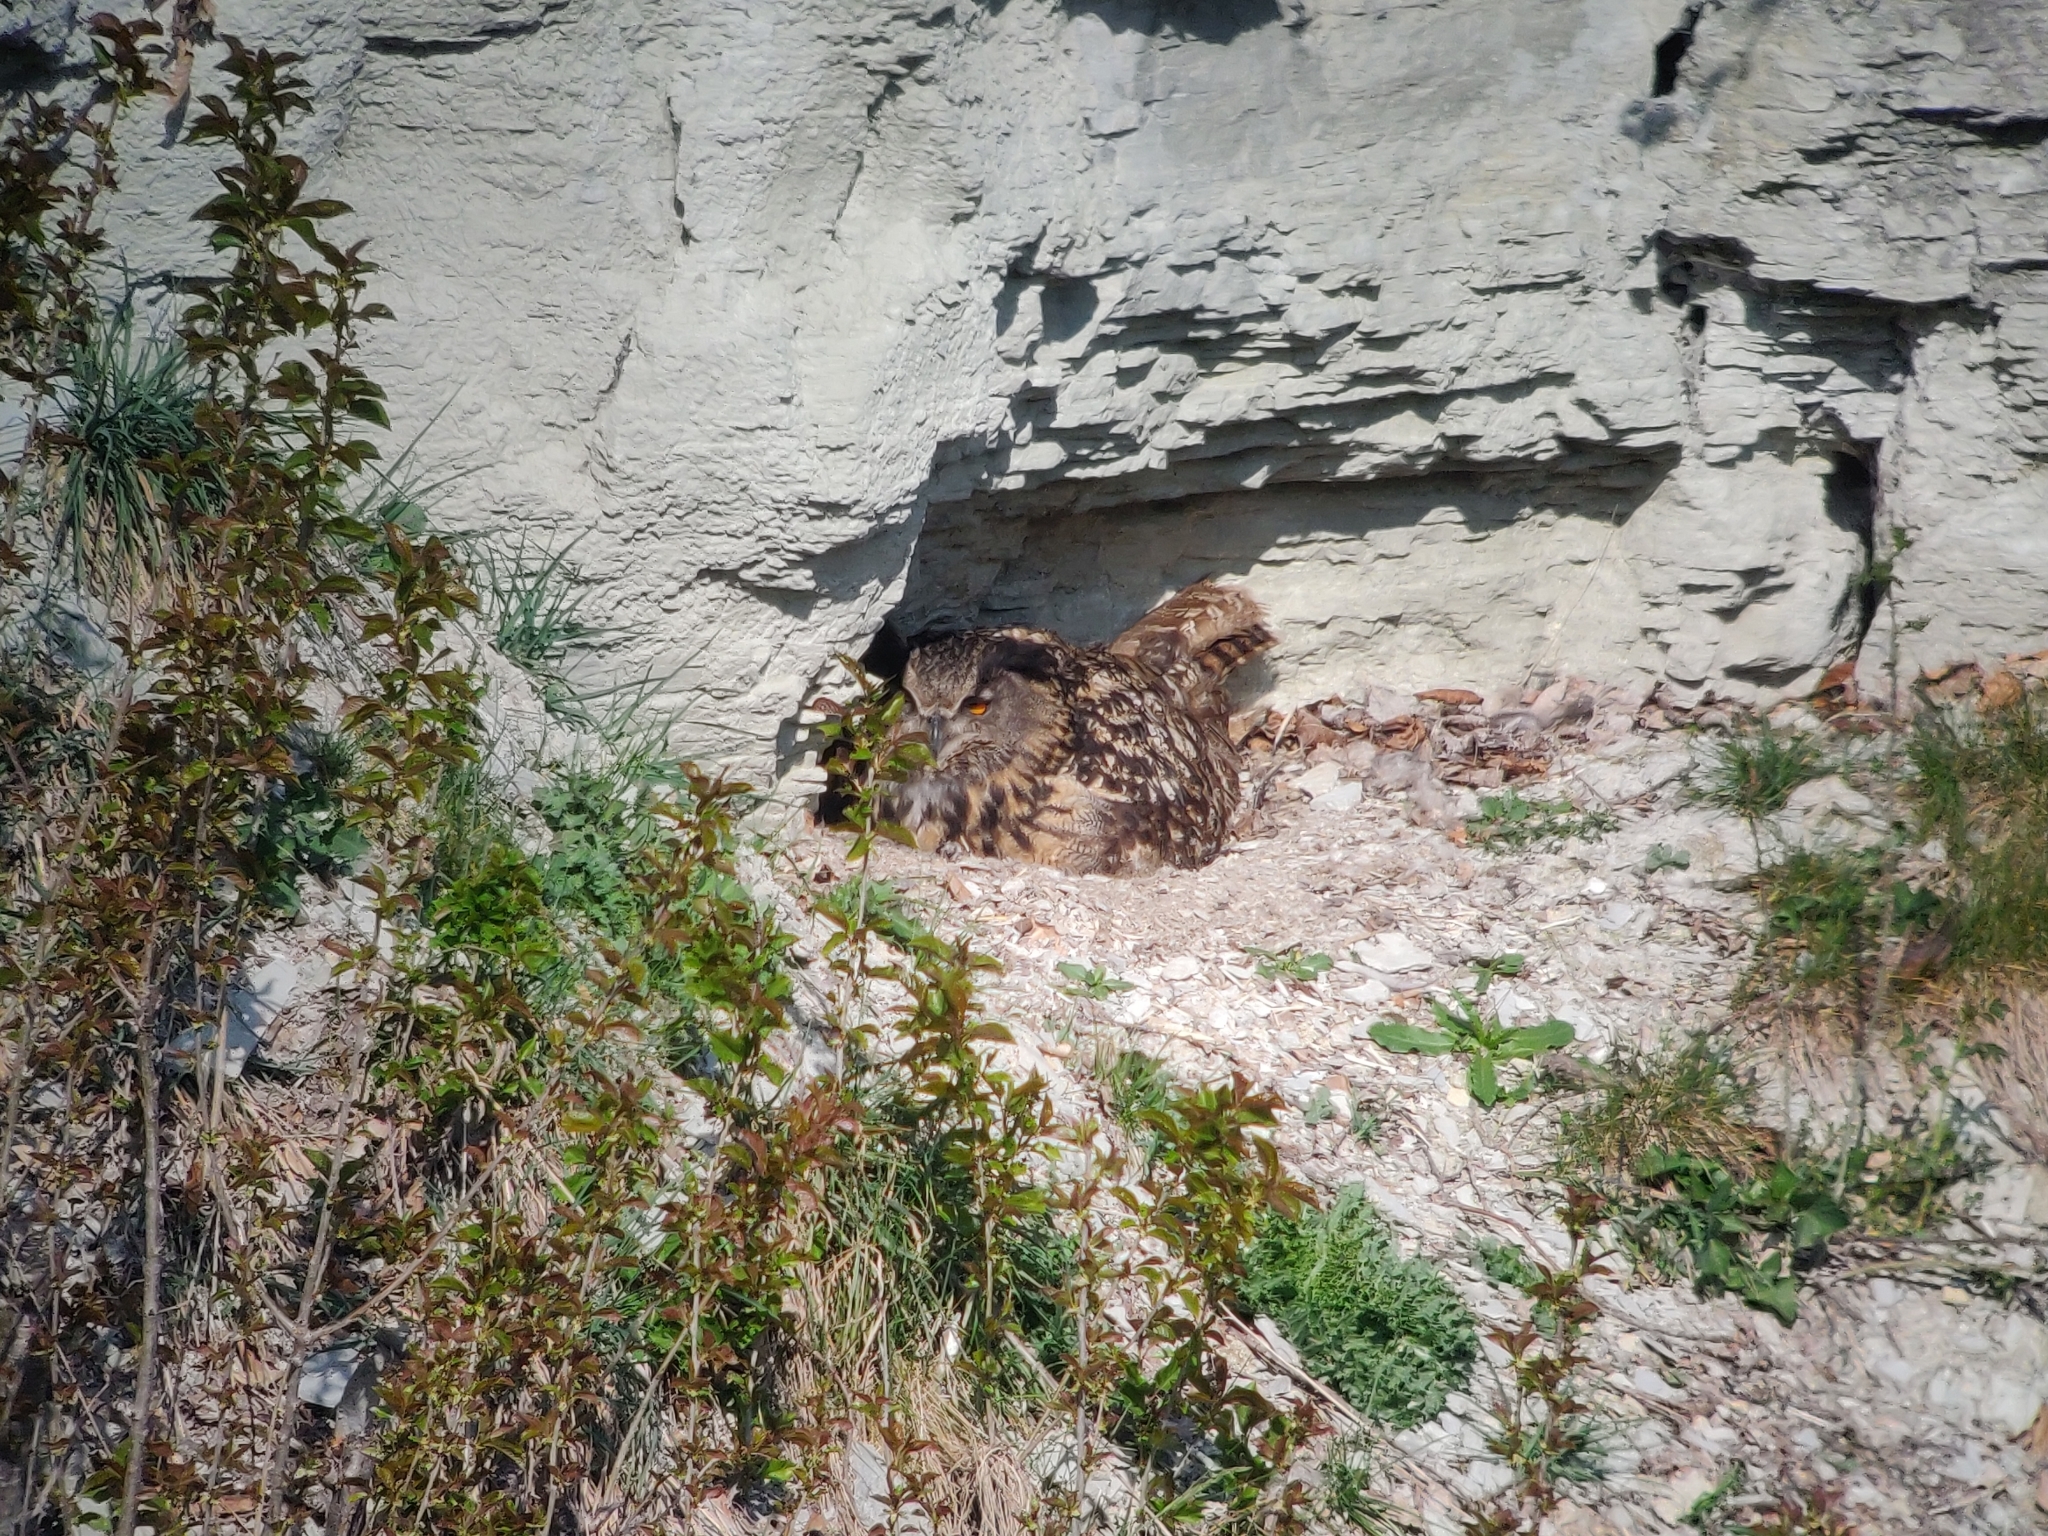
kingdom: Animalia
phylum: Chordata
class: Aves
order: Strigiformes
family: Strigidae
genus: Bubo
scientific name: Bubo bubo
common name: Eurasian eagle-owl
